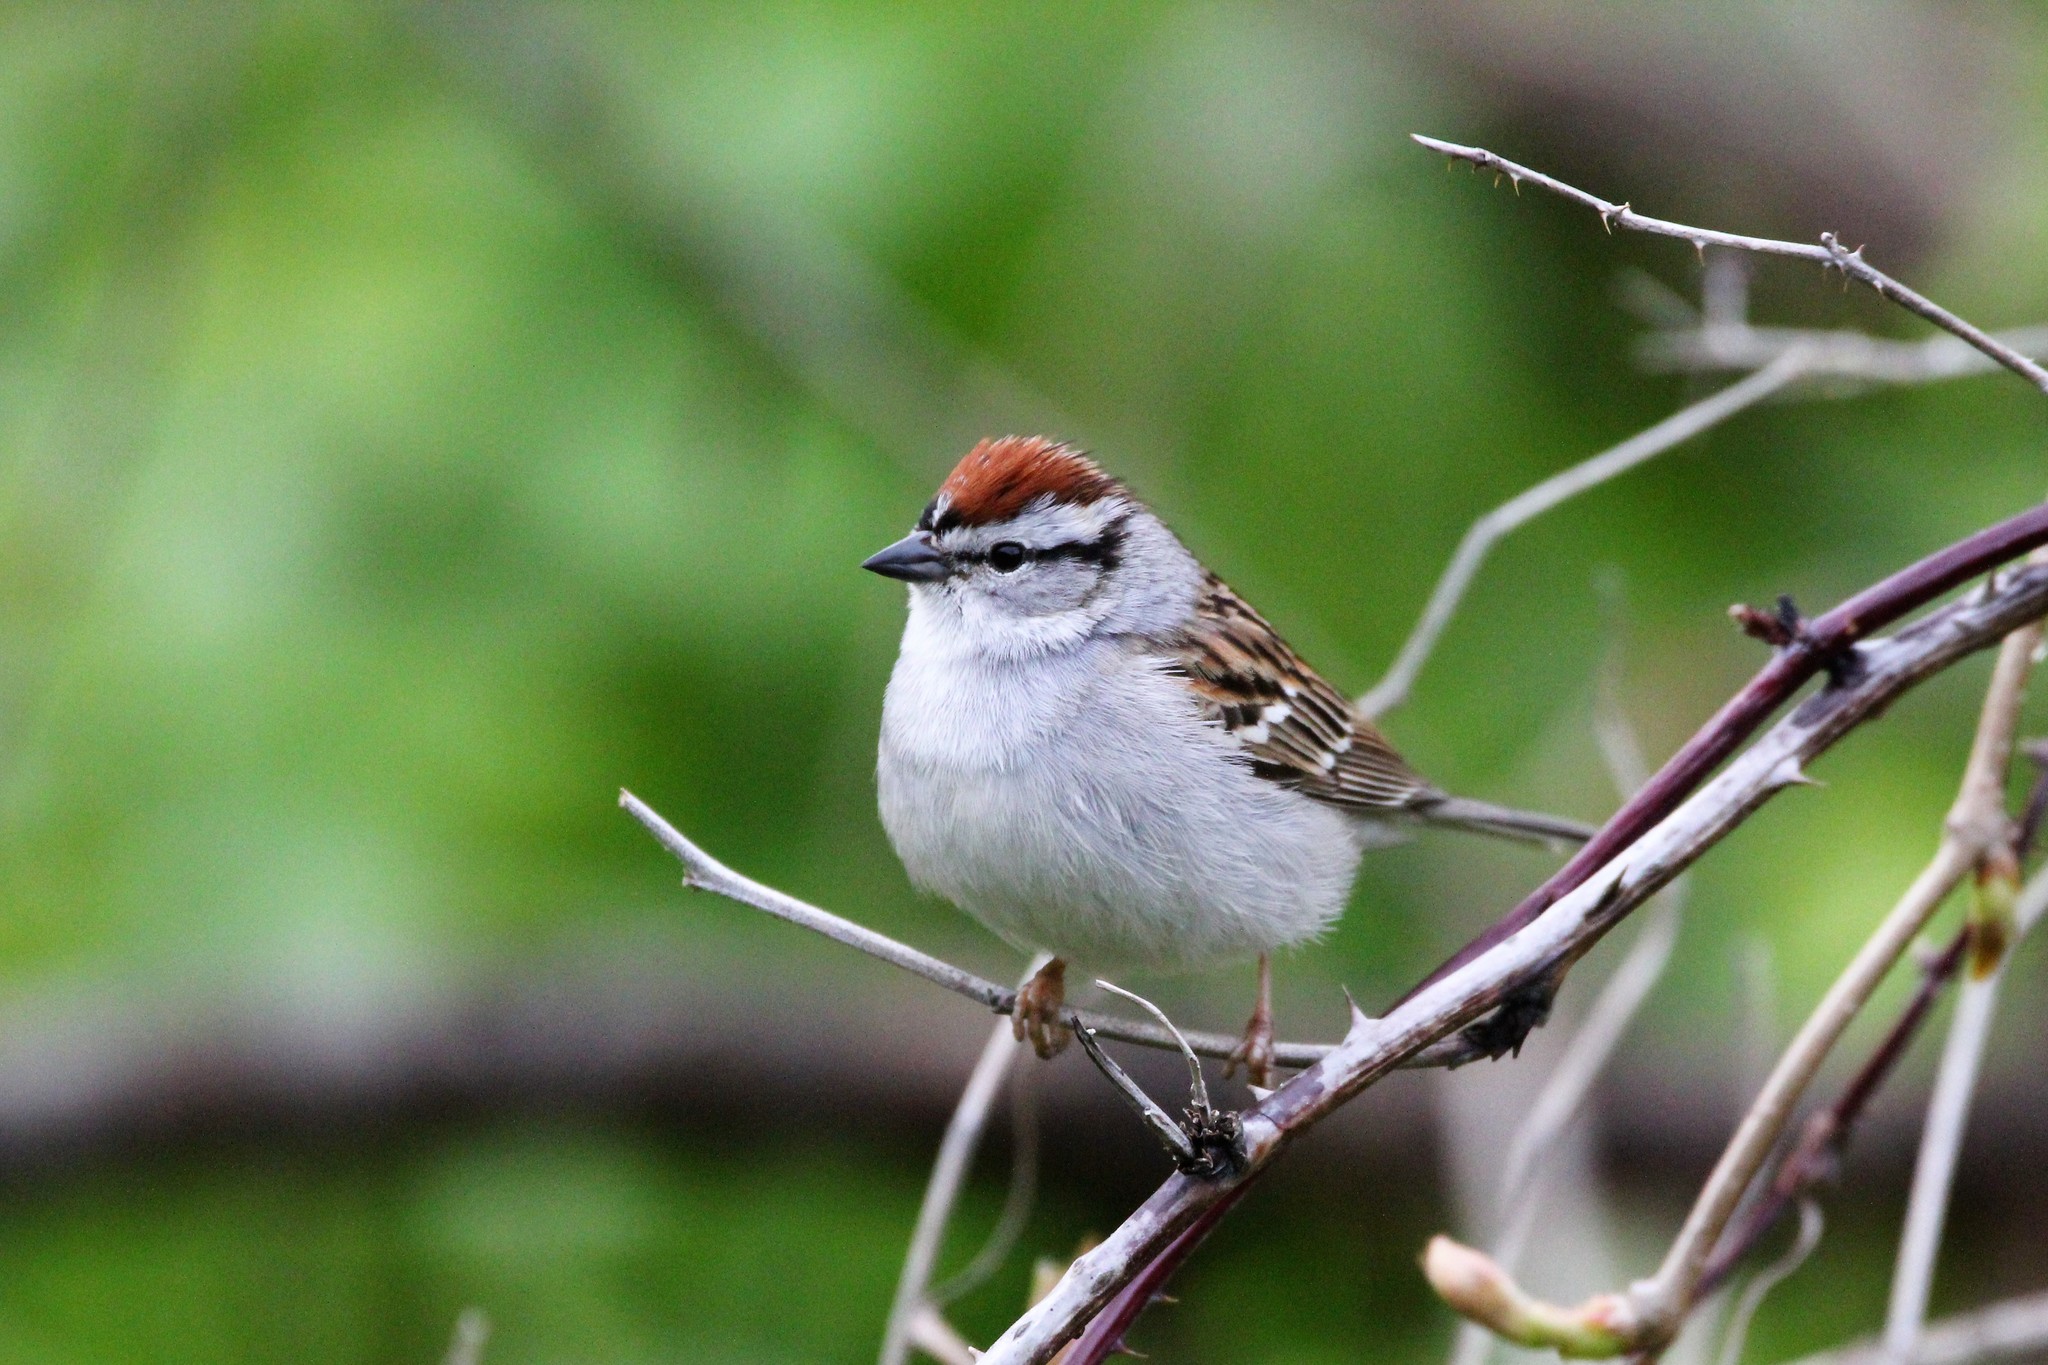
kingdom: Animalia
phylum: Chordata
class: Aves
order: Passeriformes
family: Passerellidae
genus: Spizella
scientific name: Spizella passerina
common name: Chipping sparrow
